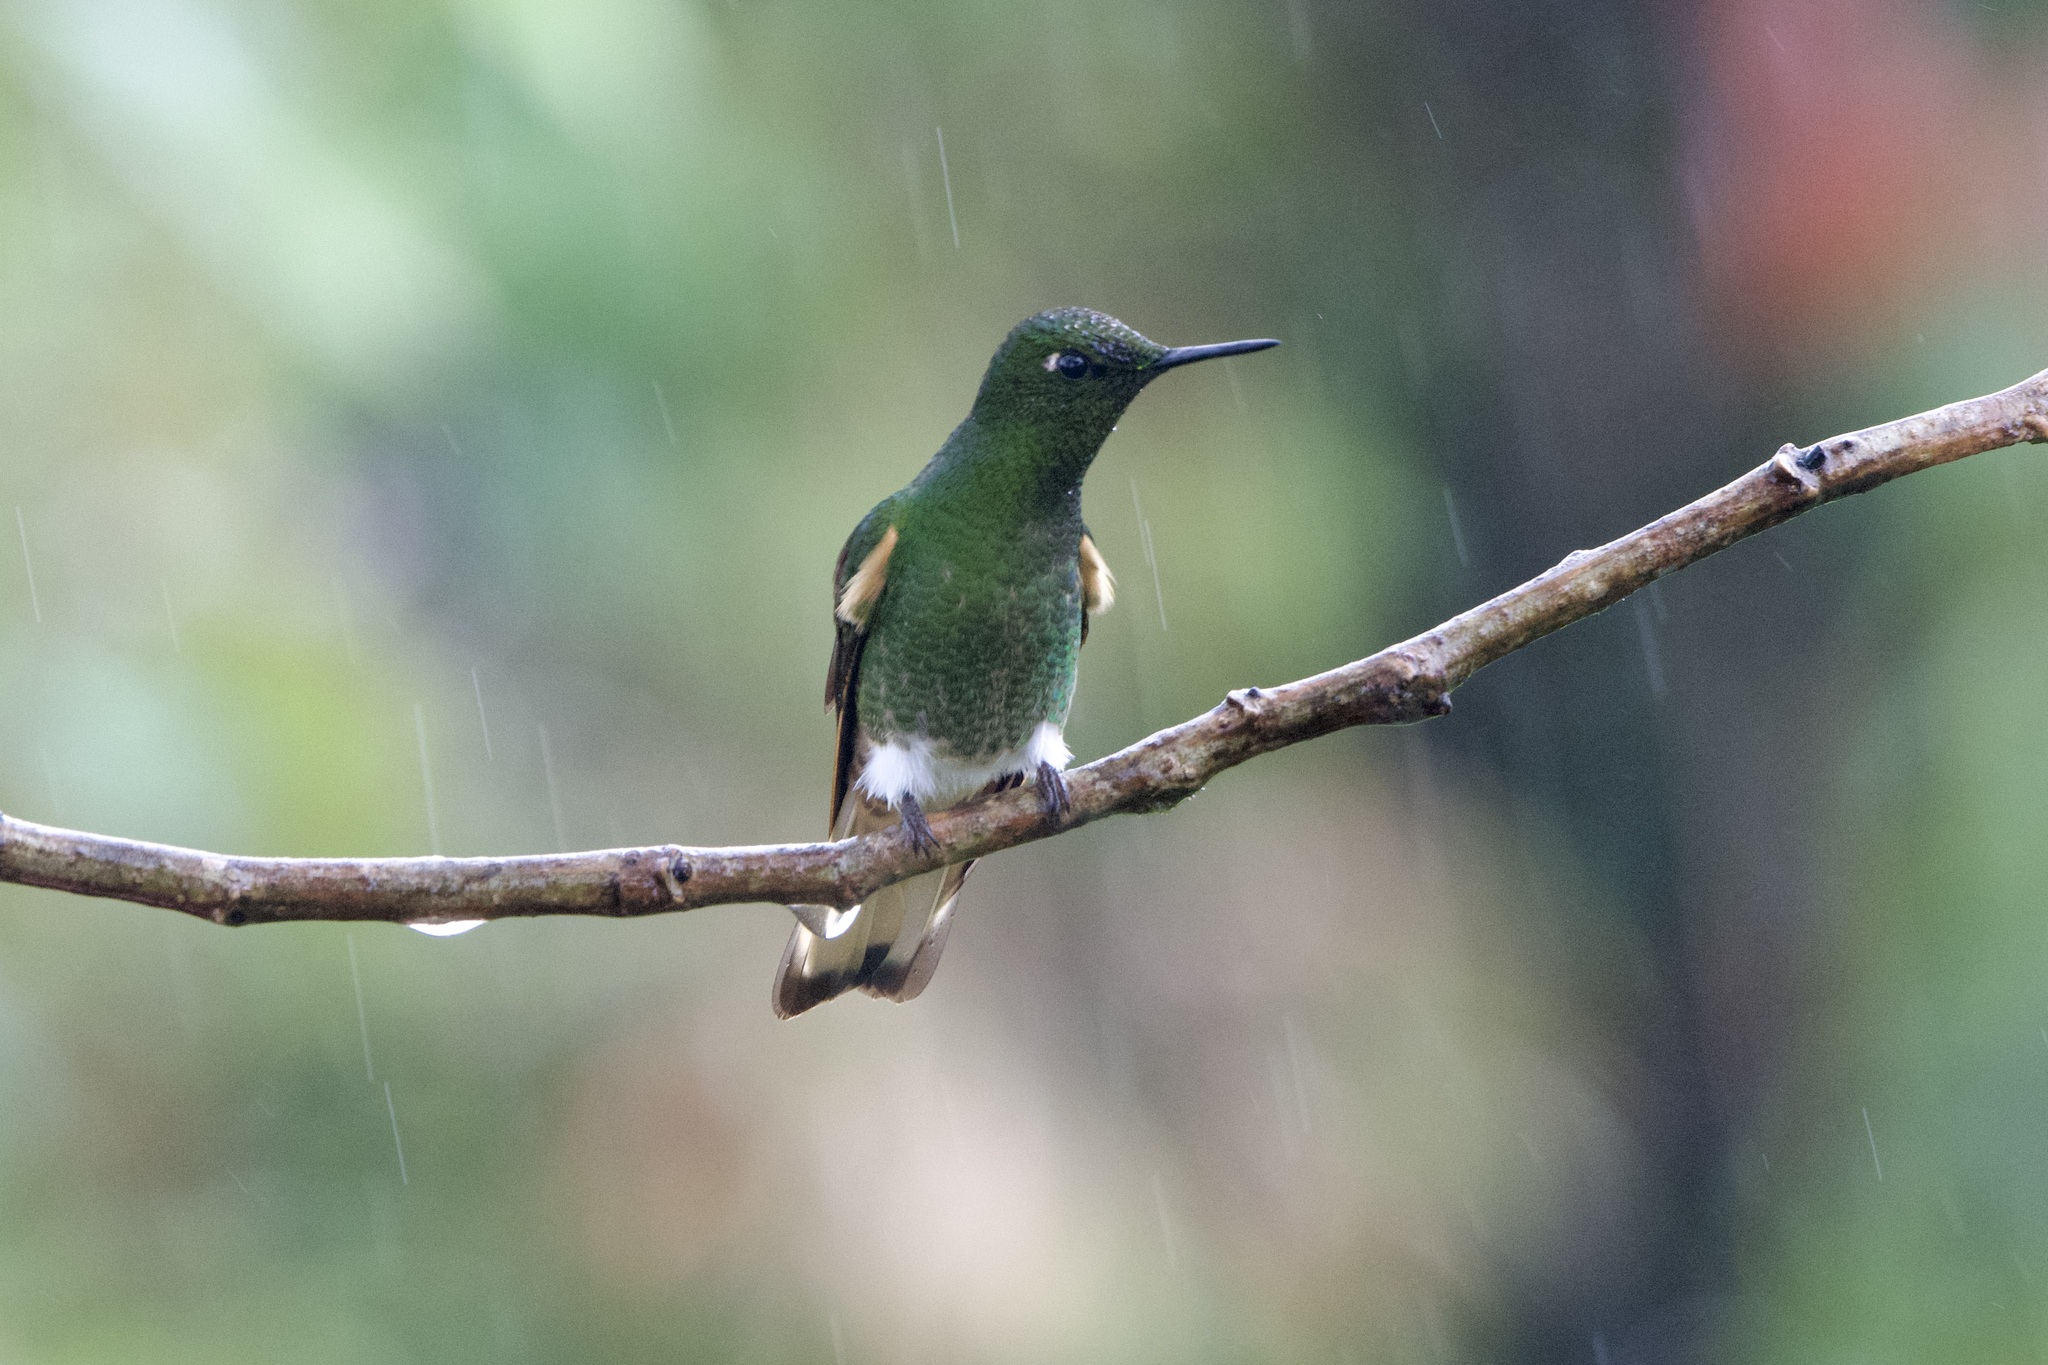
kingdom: Animalia
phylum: Chordata
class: Aves
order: Apodiformes
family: Trochilidae
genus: Boissonneaua
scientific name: Boissonneaua flavescens
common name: Buff-tailed coronet
